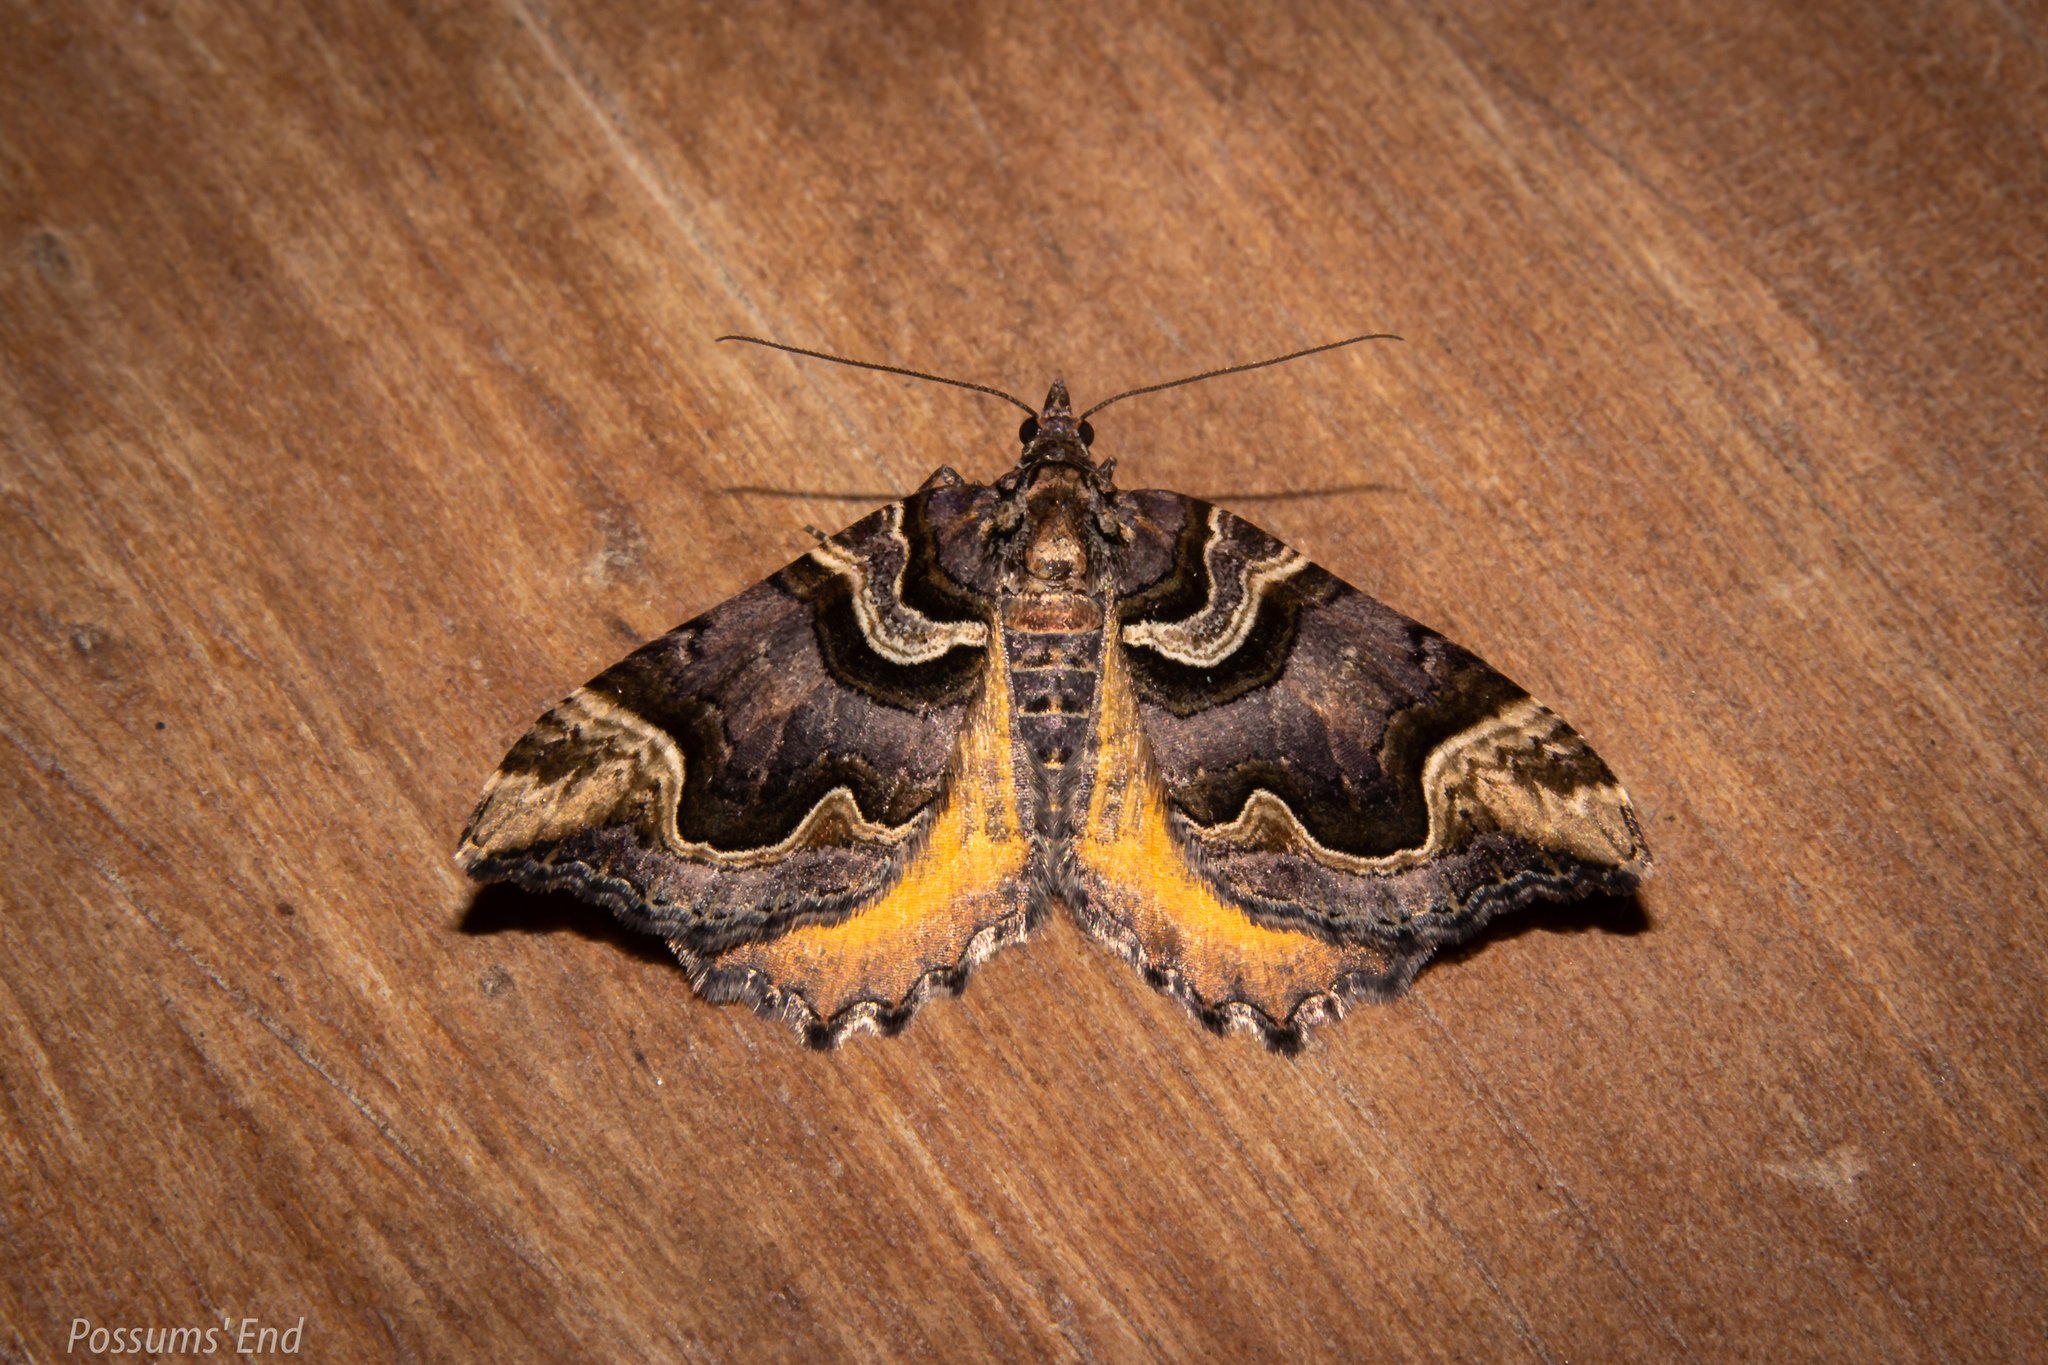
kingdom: Animalia
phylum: Arthropoda
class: Insecta
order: Lepidoptera
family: Geometridae
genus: Asaphodes
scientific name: Asaphodes chlamydota
